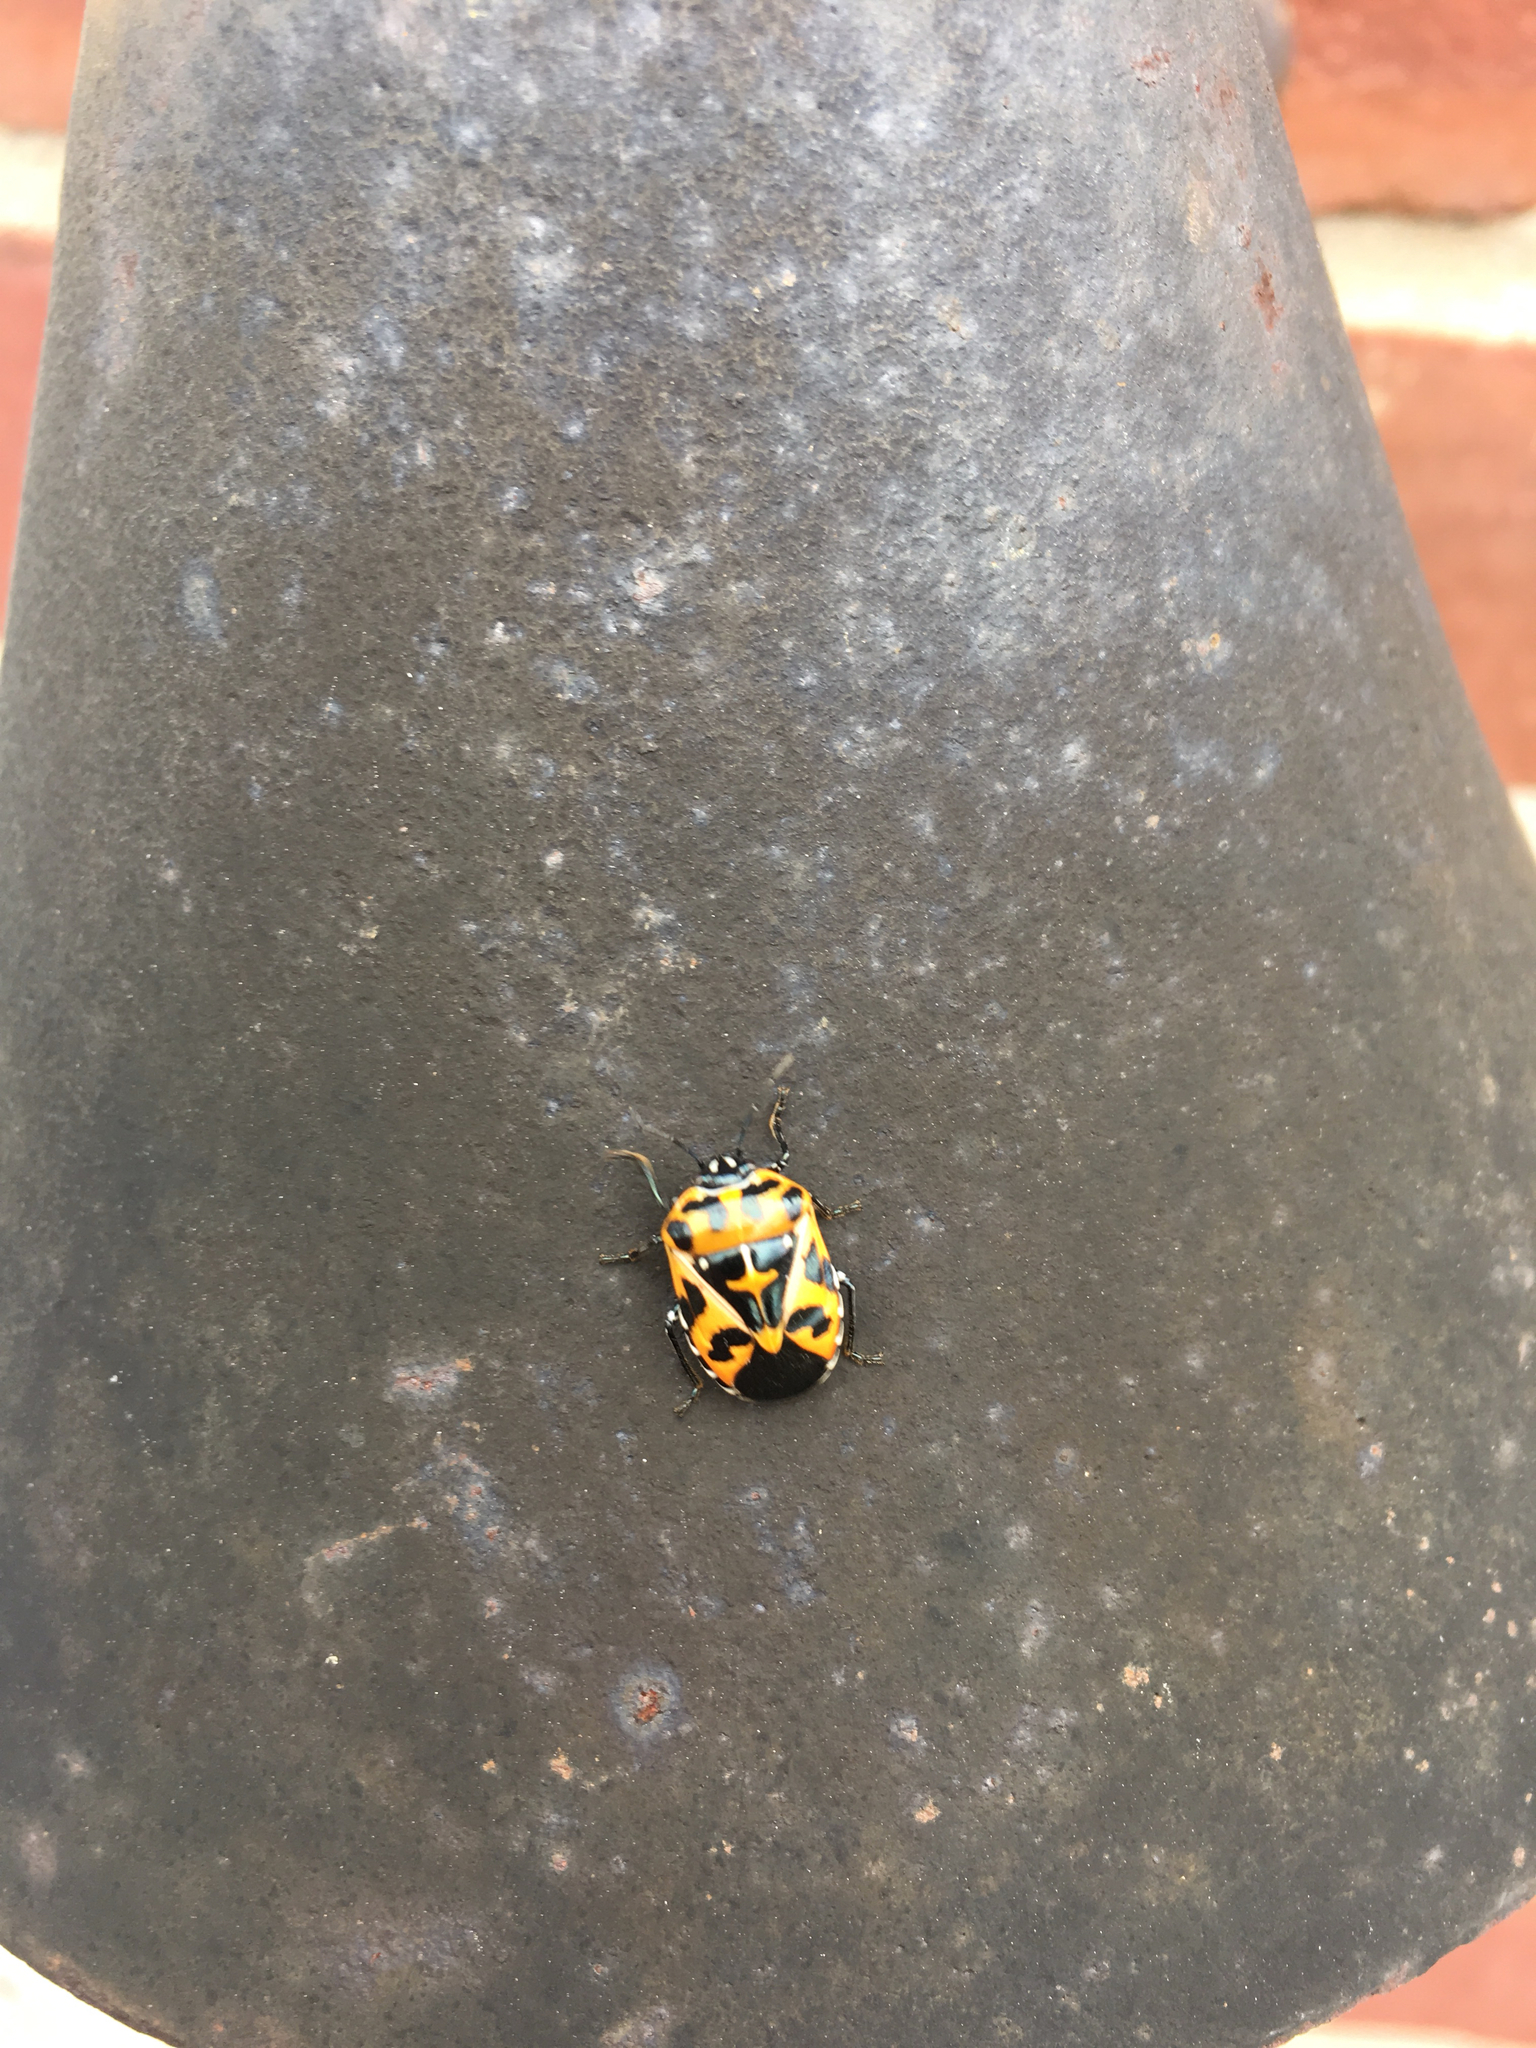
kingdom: Animalia
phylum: Arthropoda
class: Insecta
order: Hemiptera
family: Pentatomidae
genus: Murgantia
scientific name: Murgantia histrionica
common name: Harlequin bug
